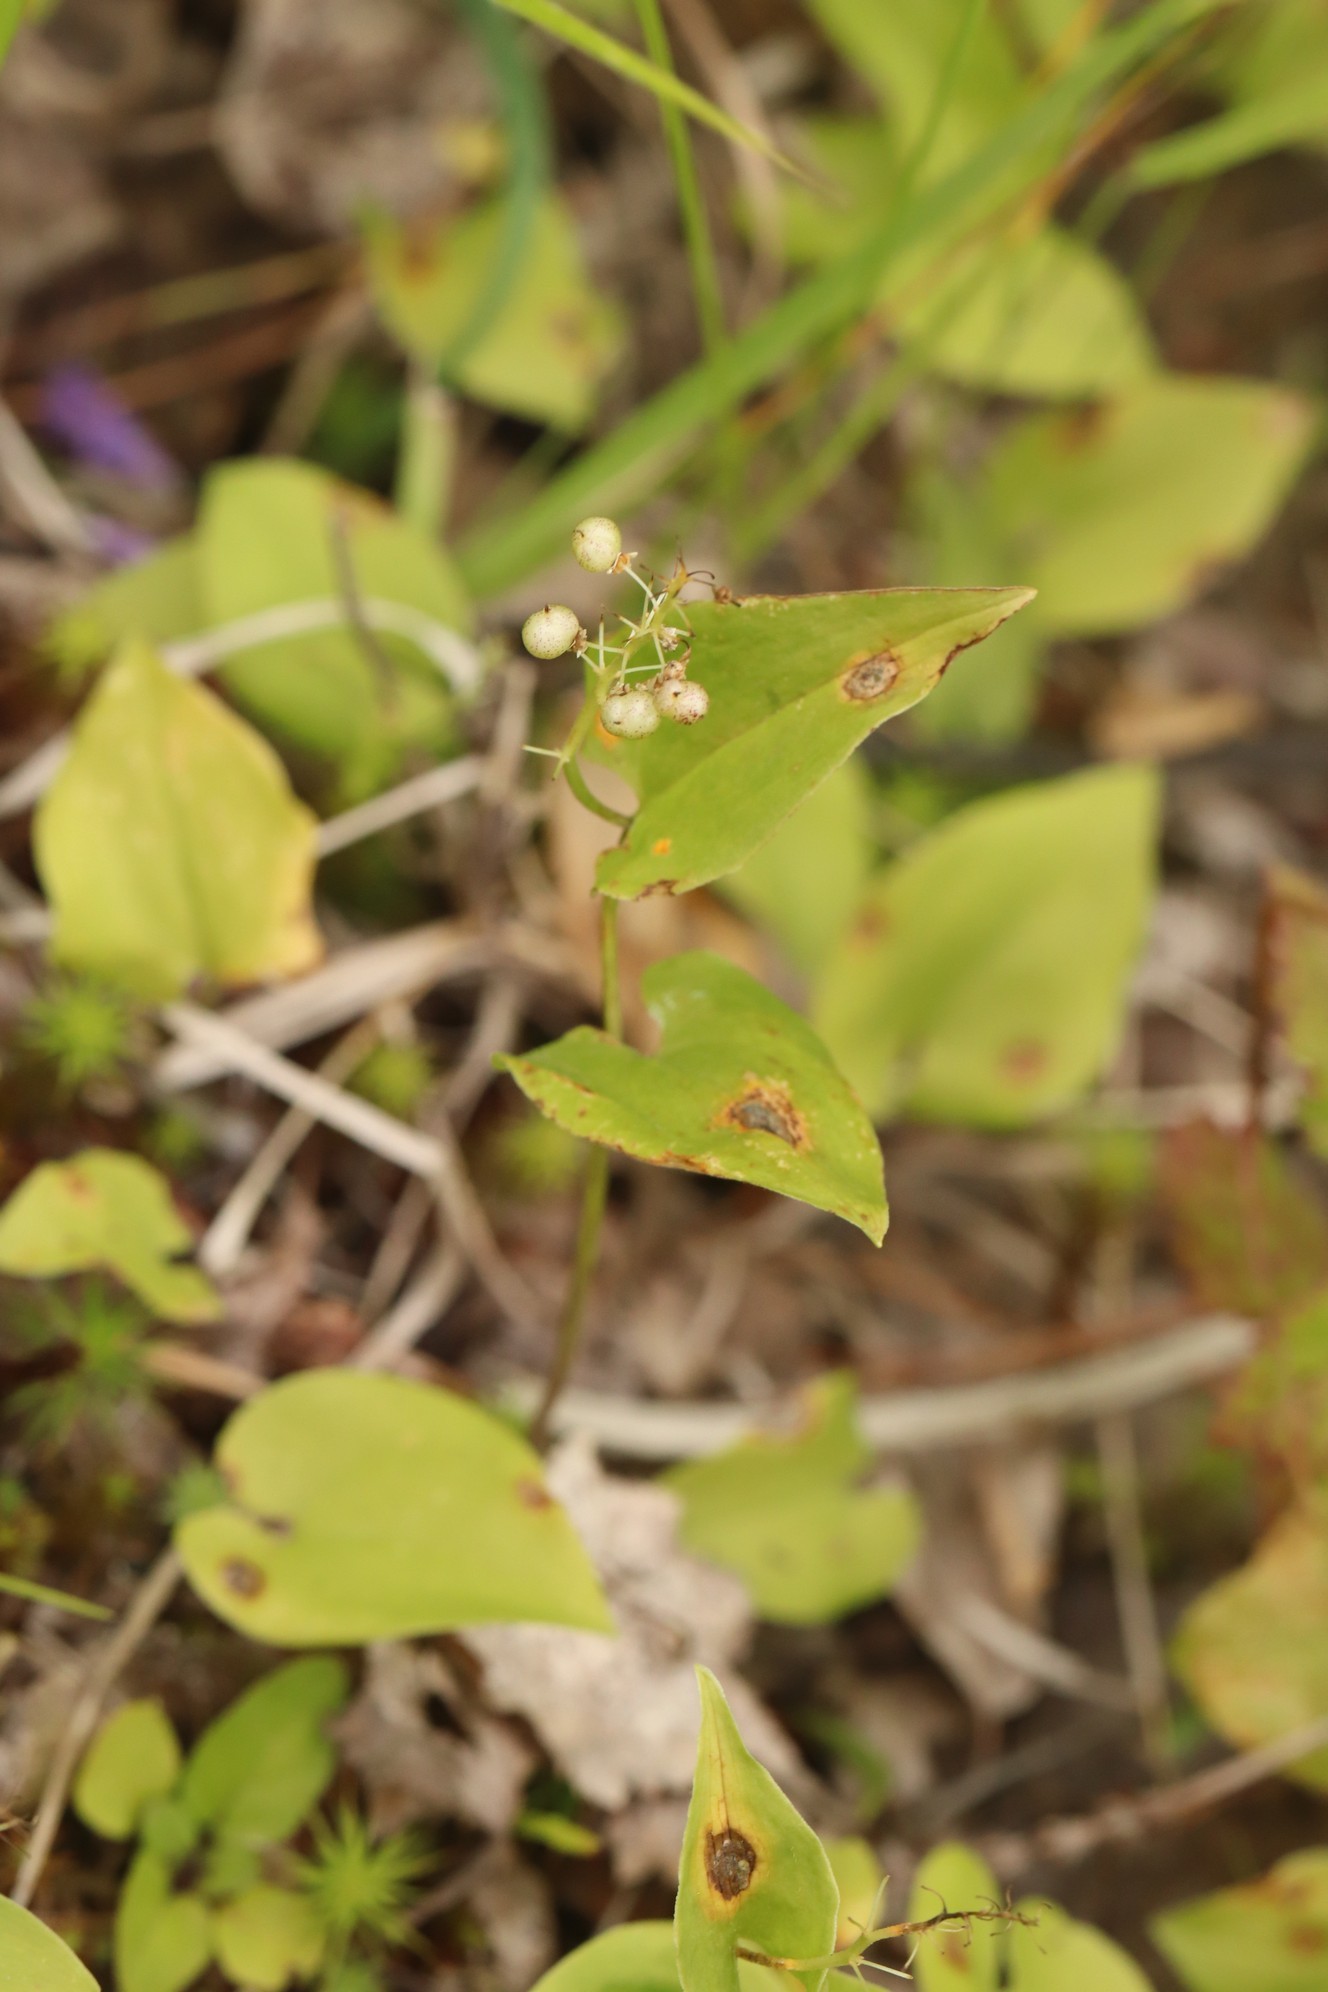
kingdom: Plantae
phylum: Tracheophyta
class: Liliopsida
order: Asparagales
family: Asparagaceae
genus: Maianthemum
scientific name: Maianthemum bifolium
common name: May lily
